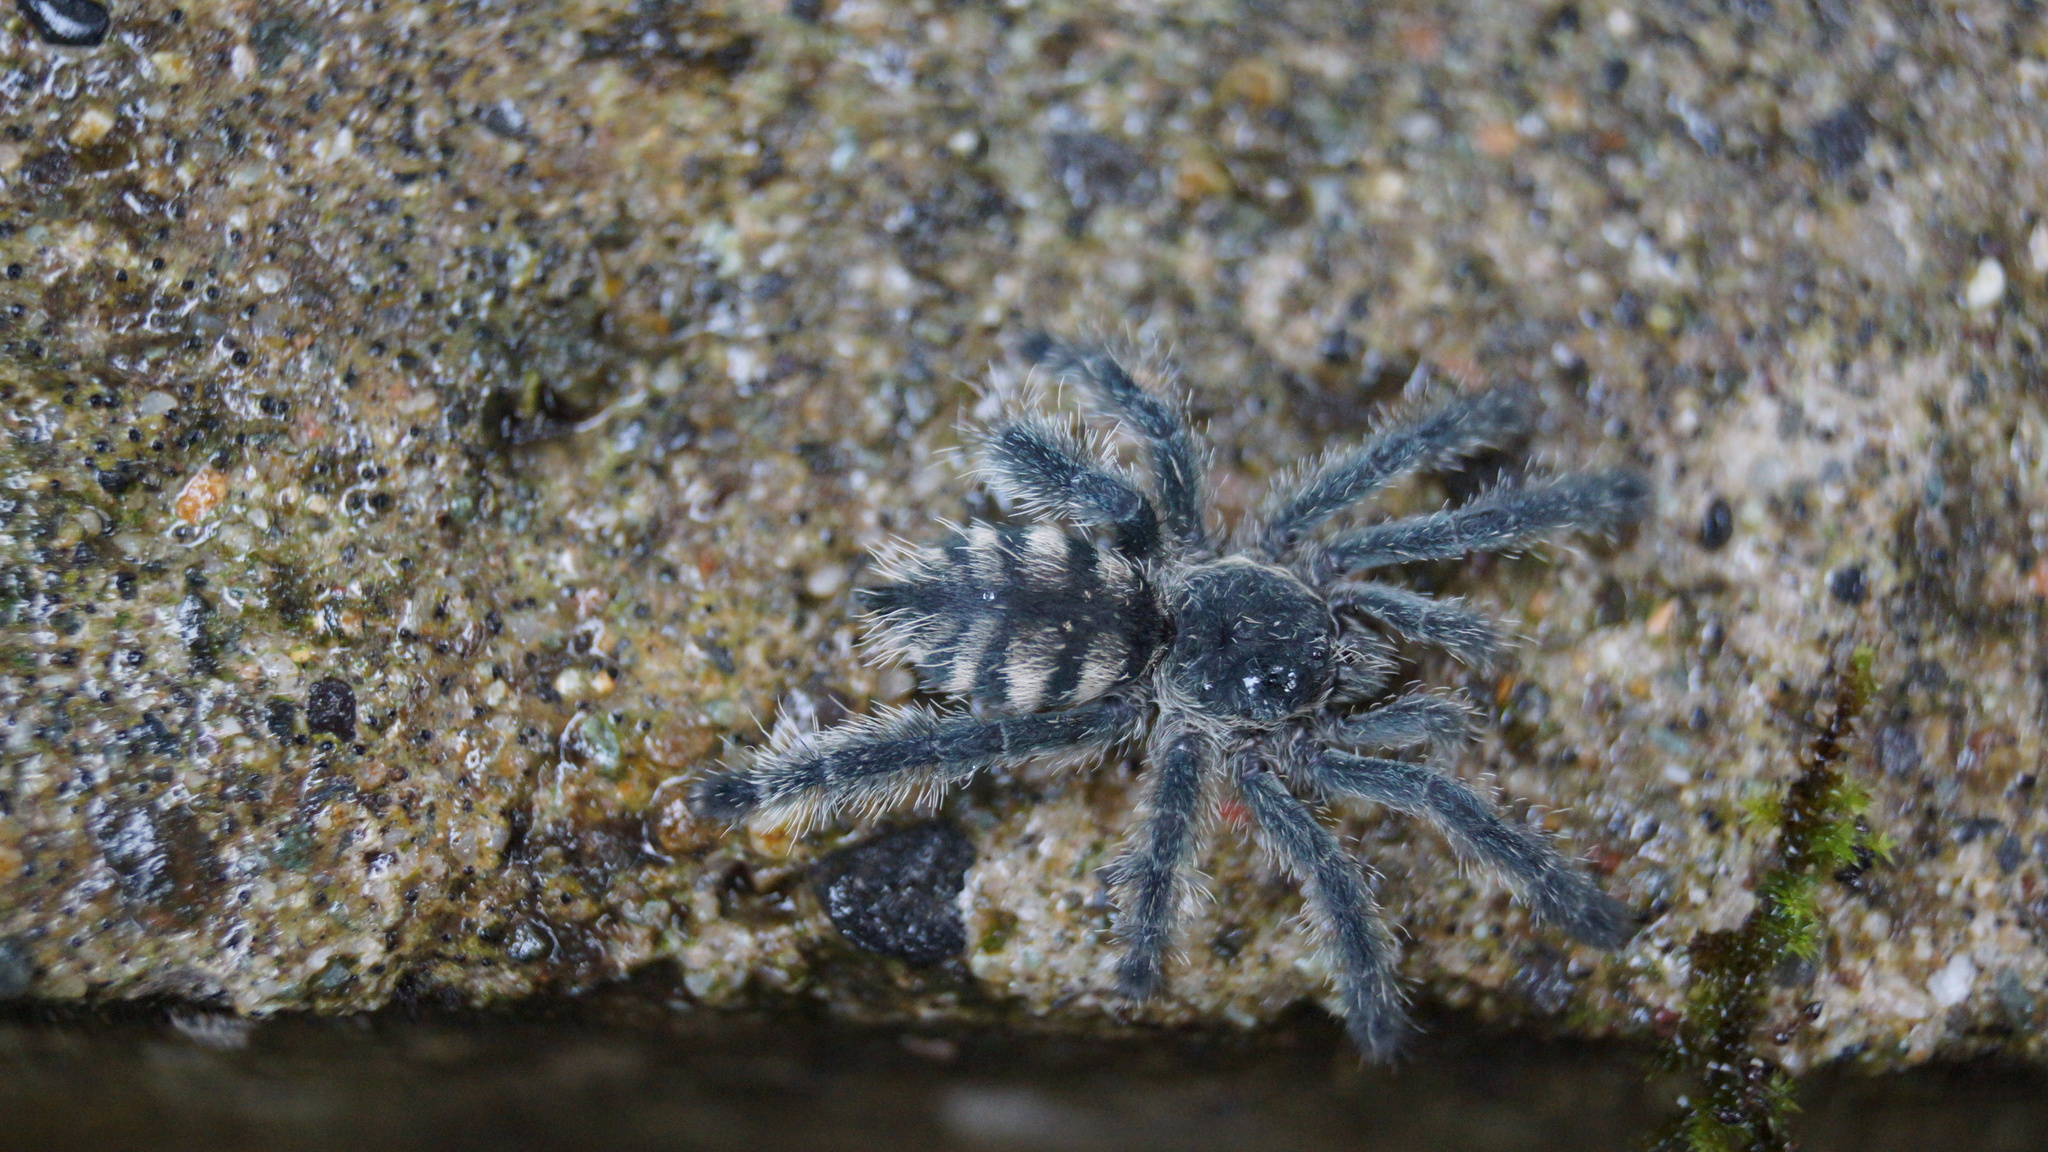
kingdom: Animalia
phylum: Arthropoda
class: Arachnida
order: Araneae
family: Theraphosidae
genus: Avicularia
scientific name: Avicularia purpurea
